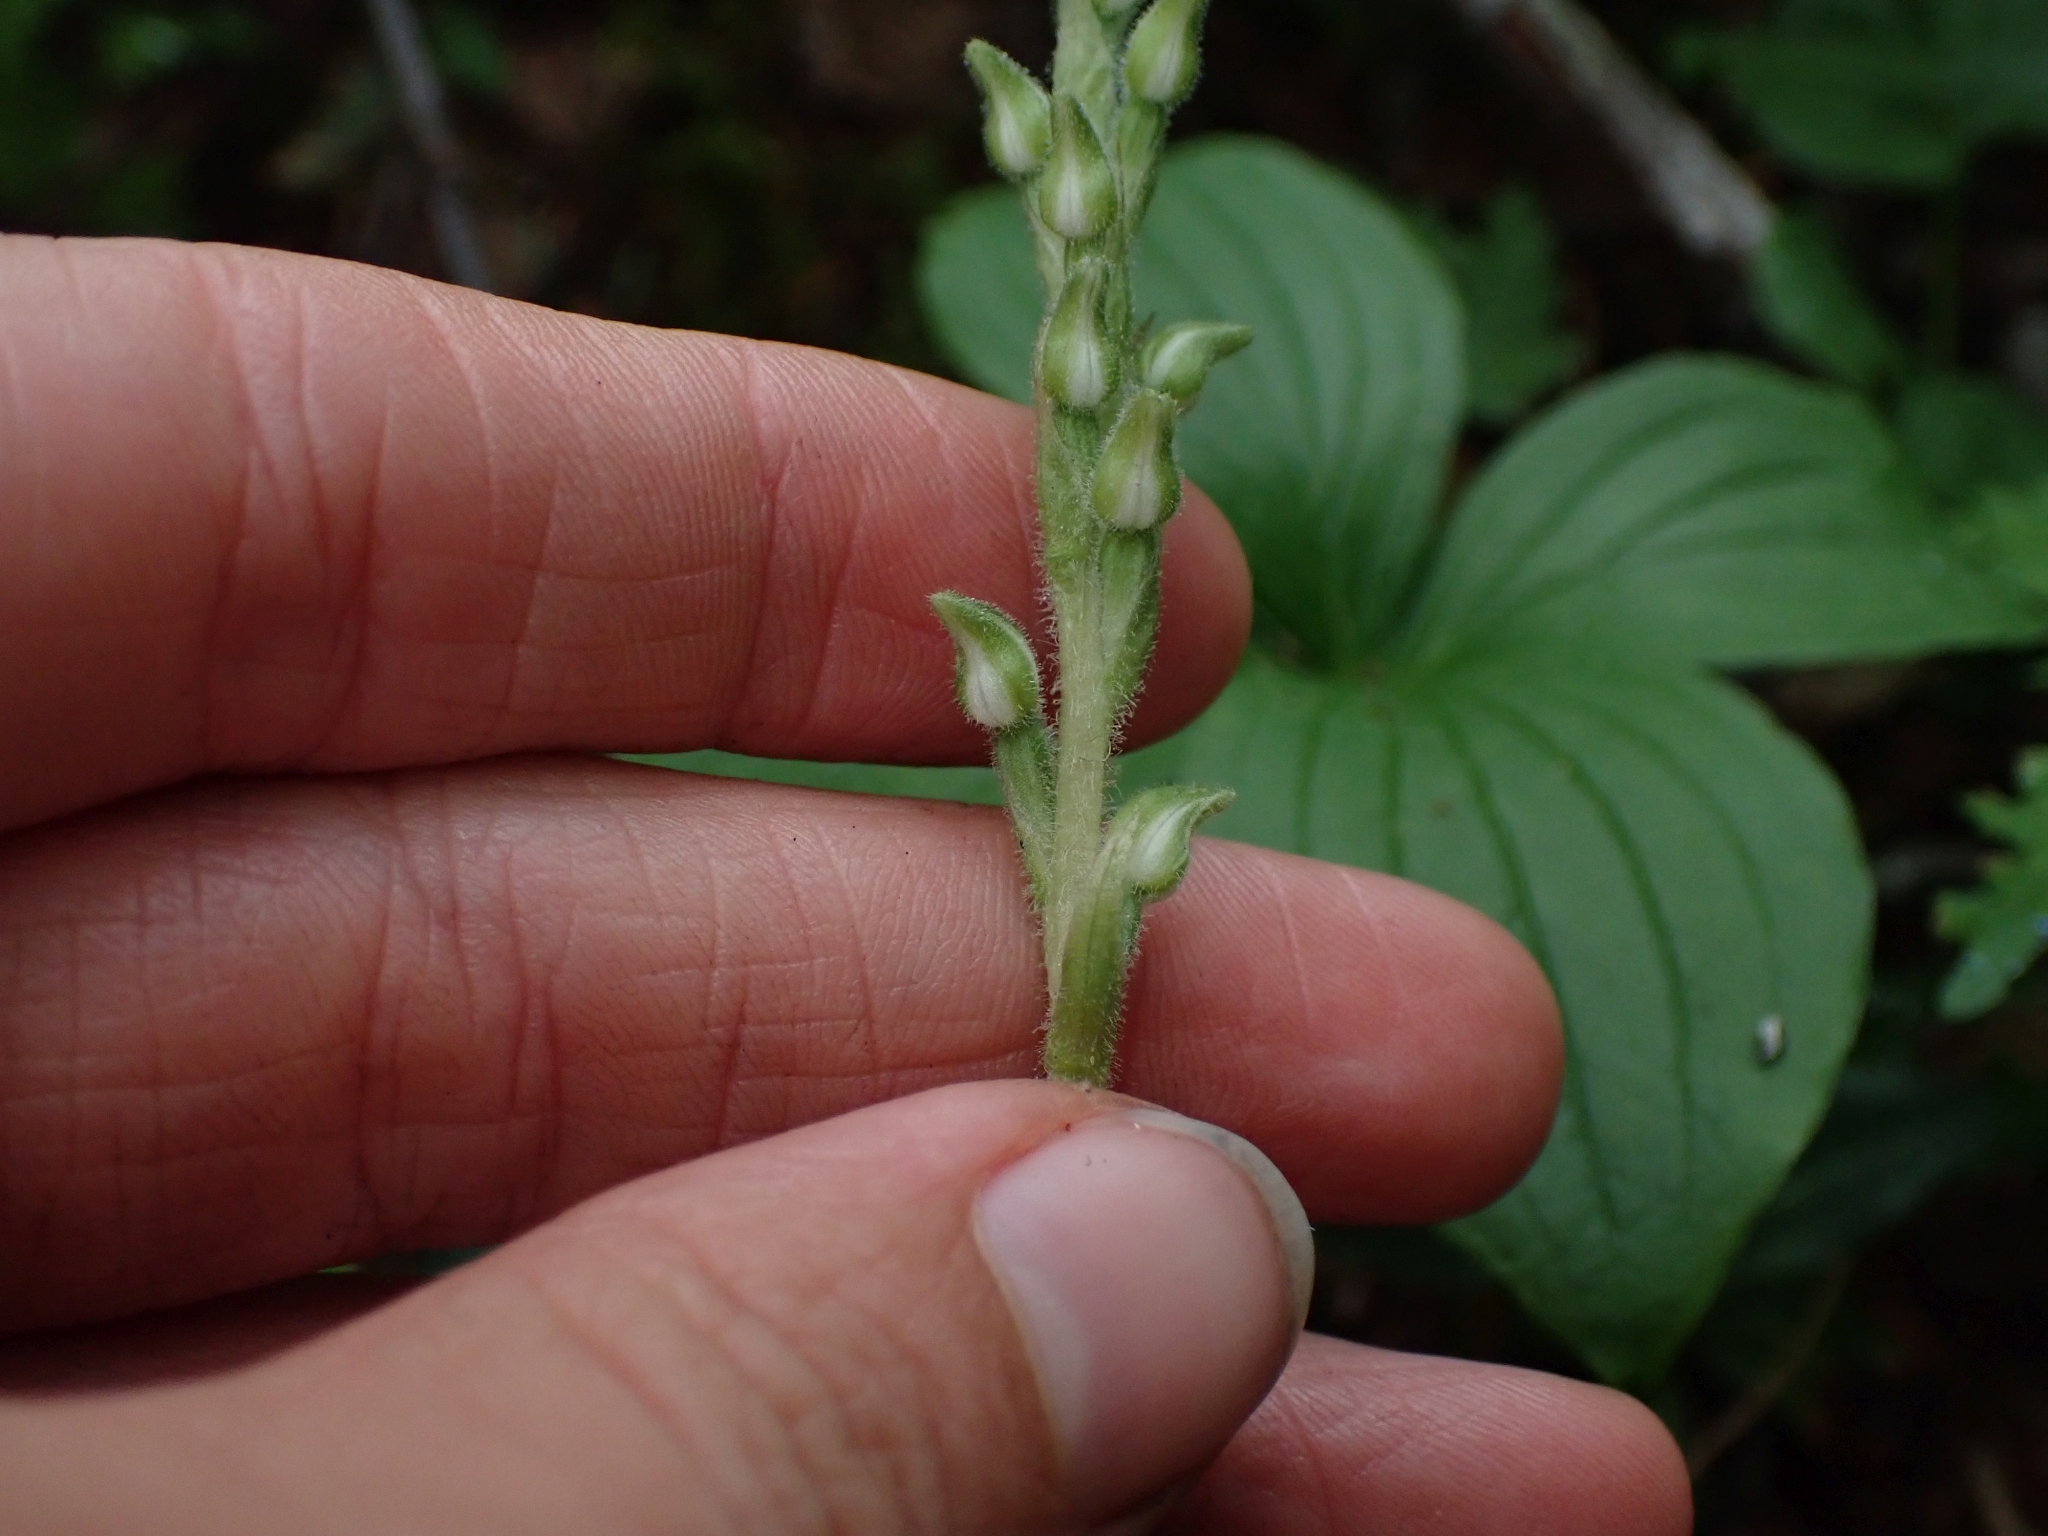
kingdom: Plantae
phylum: Tracheophyta
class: Liliopsida
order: Asparagales
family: Orchidaceae
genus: Goodyera
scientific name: Goodyera oblongifolia
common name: Giant rattlesnake-plantain
